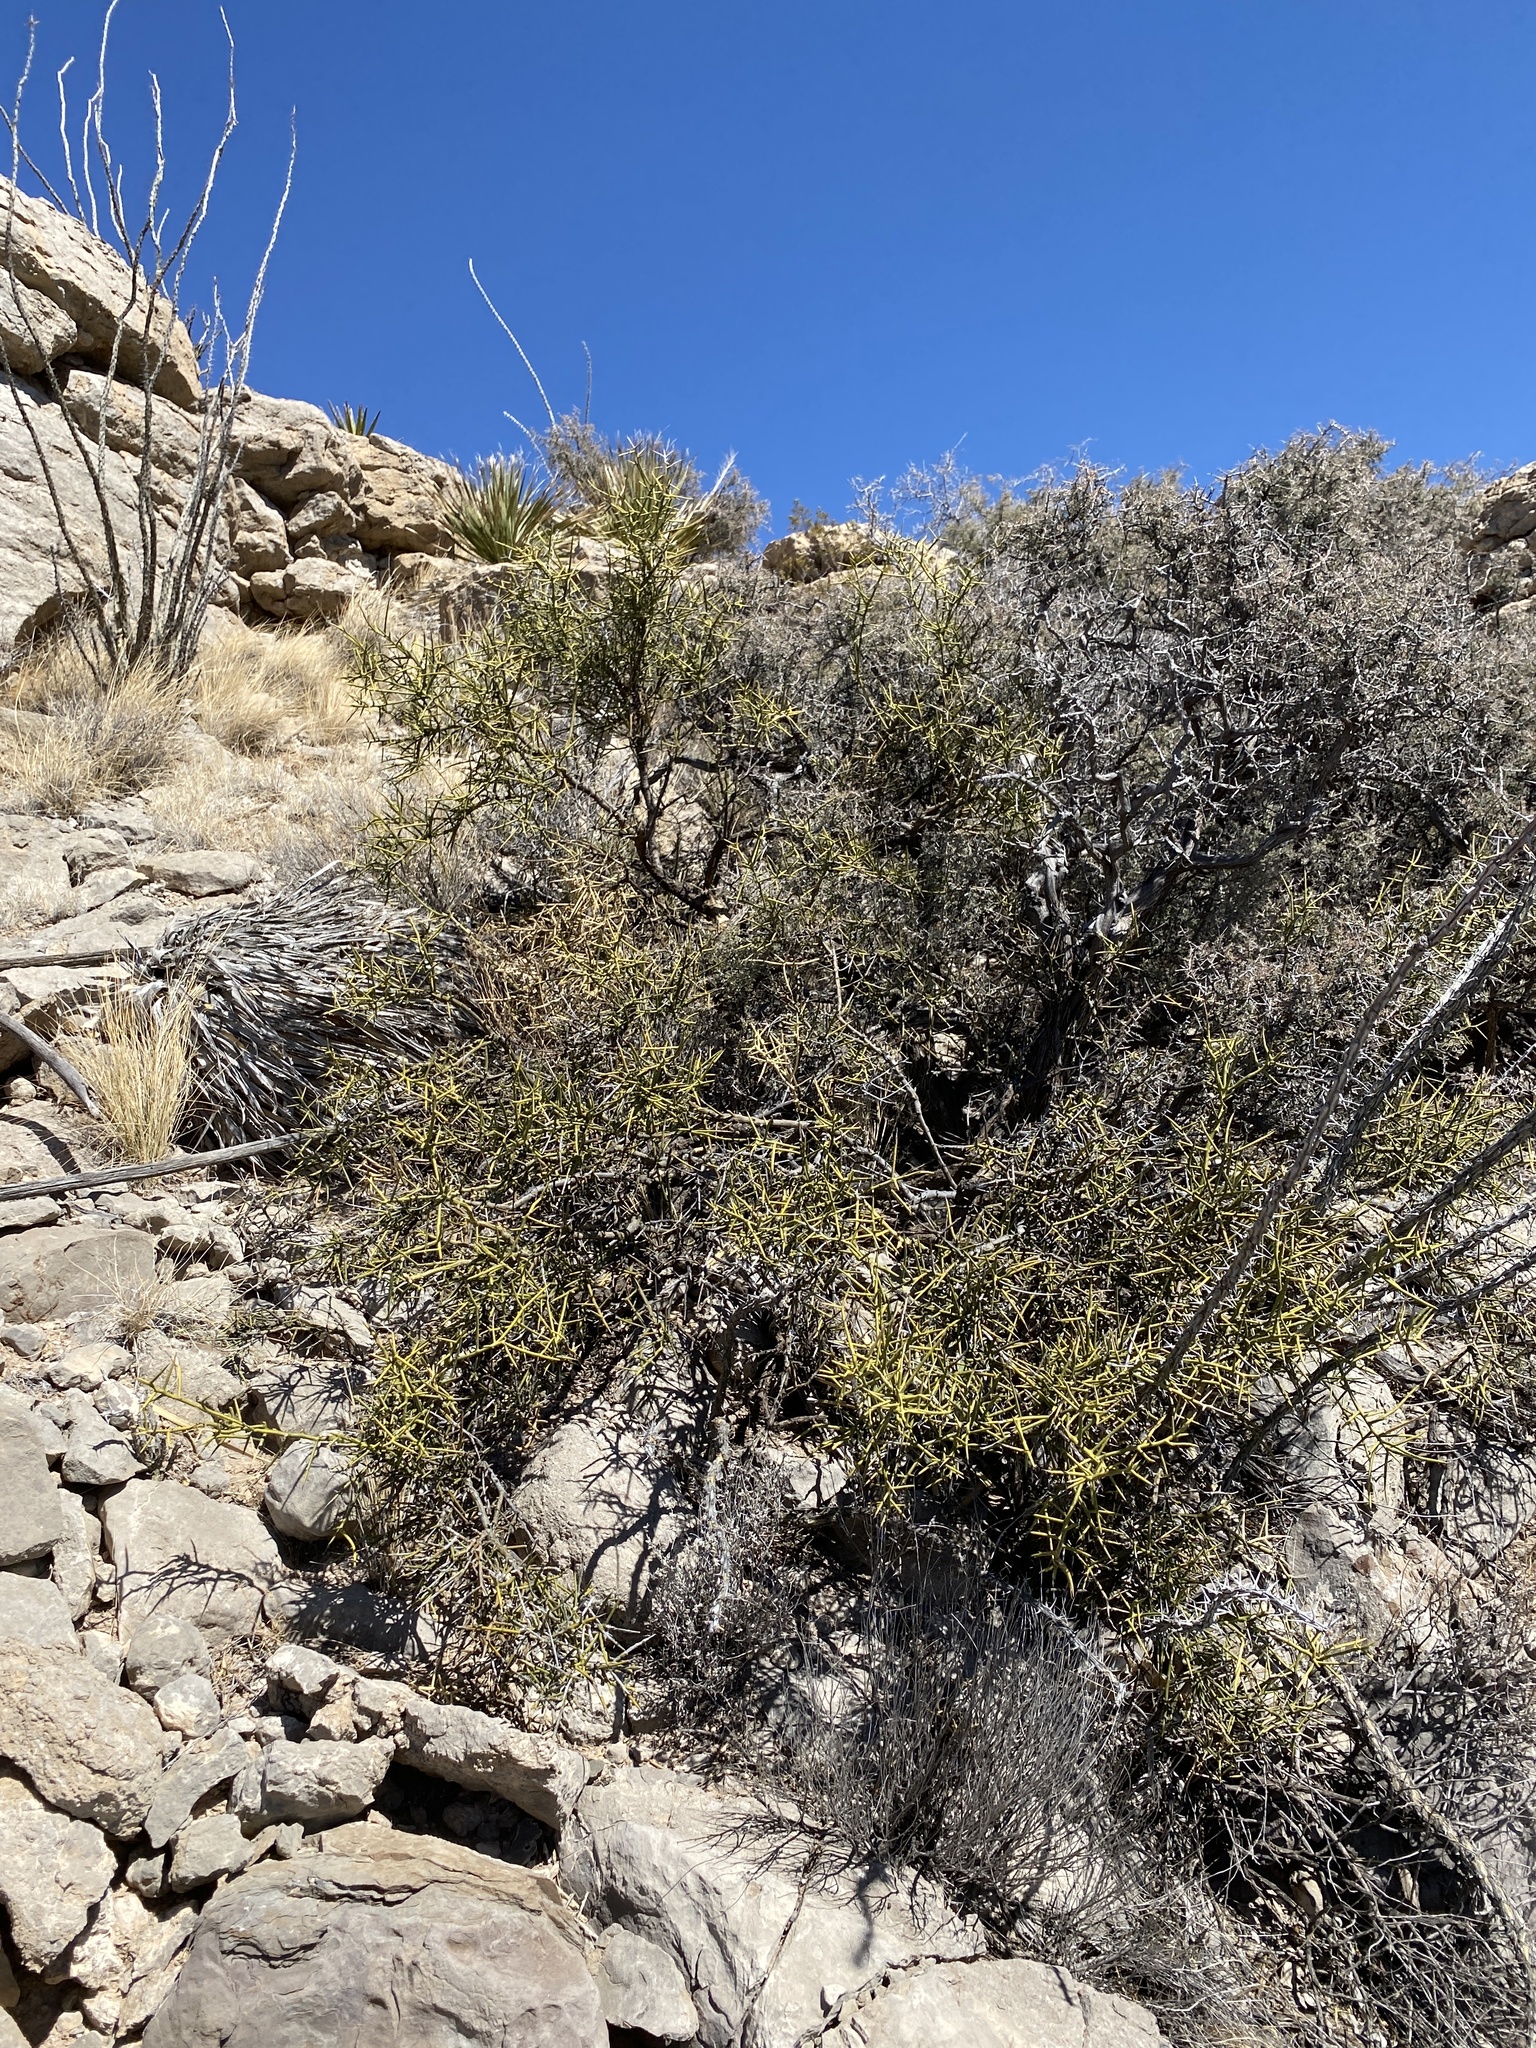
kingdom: Plantae
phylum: Tracheophyta
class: Magnoliopsida
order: Brassicales
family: Koeberliniaceae
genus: Koeberlinia
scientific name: Koeberlinia spinosa
